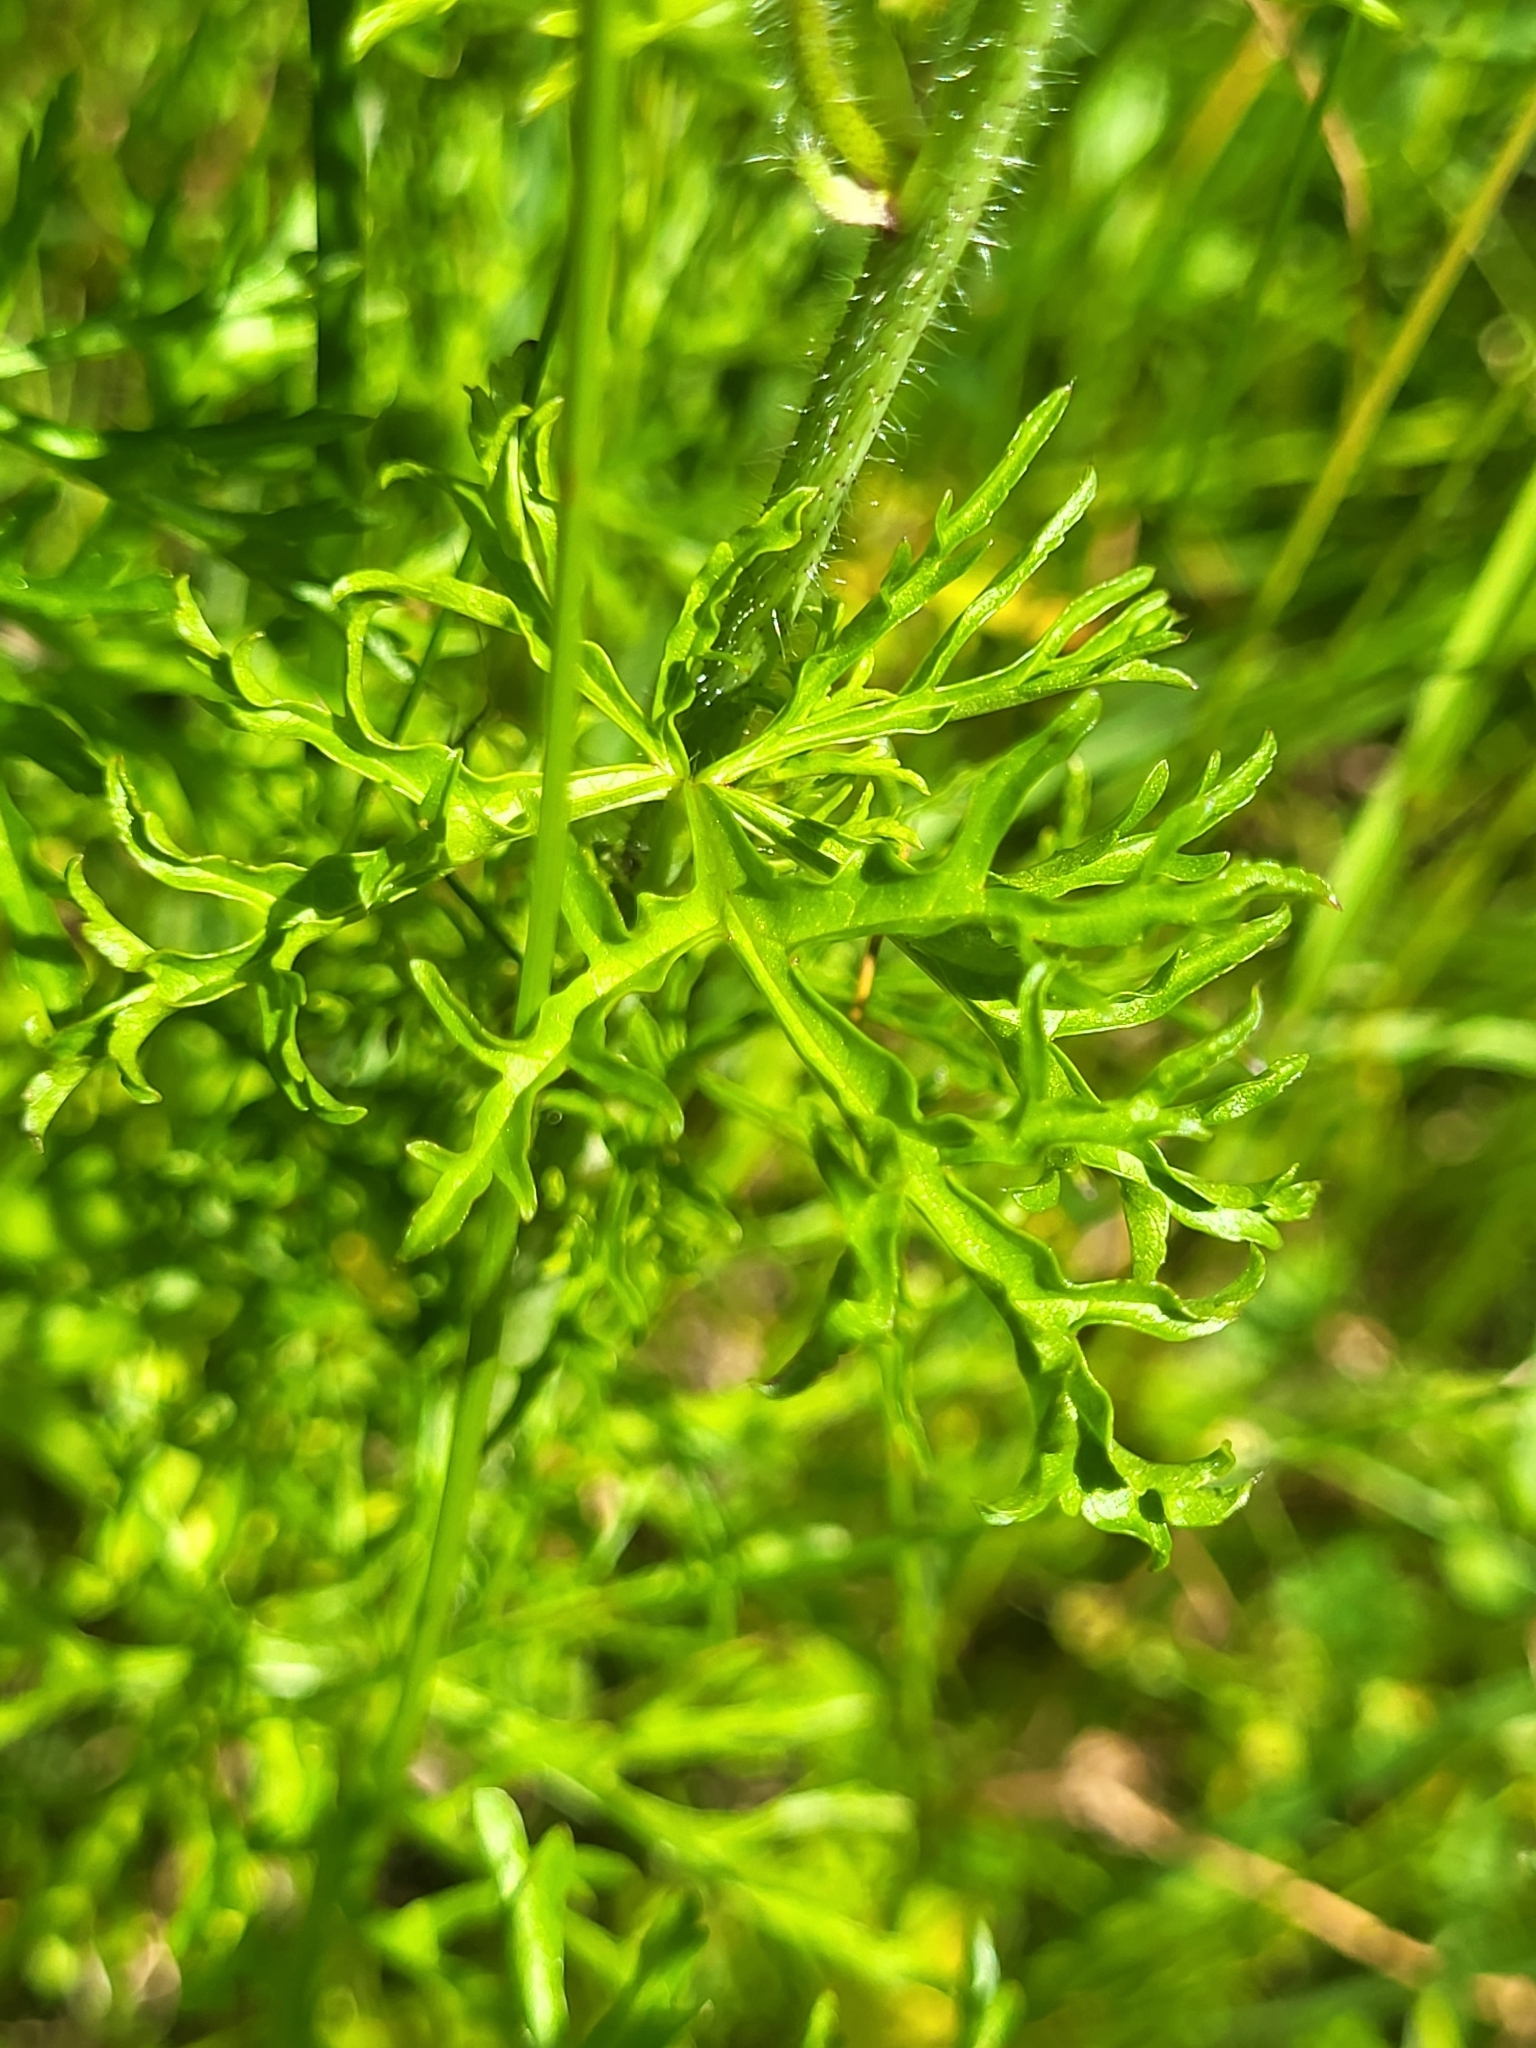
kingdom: Plantae
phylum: Tracheophyta
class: Magnoliopsida
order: Malvales
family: Malvaceae
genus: Malva
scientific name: Malva moschata
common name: Musk mallow
